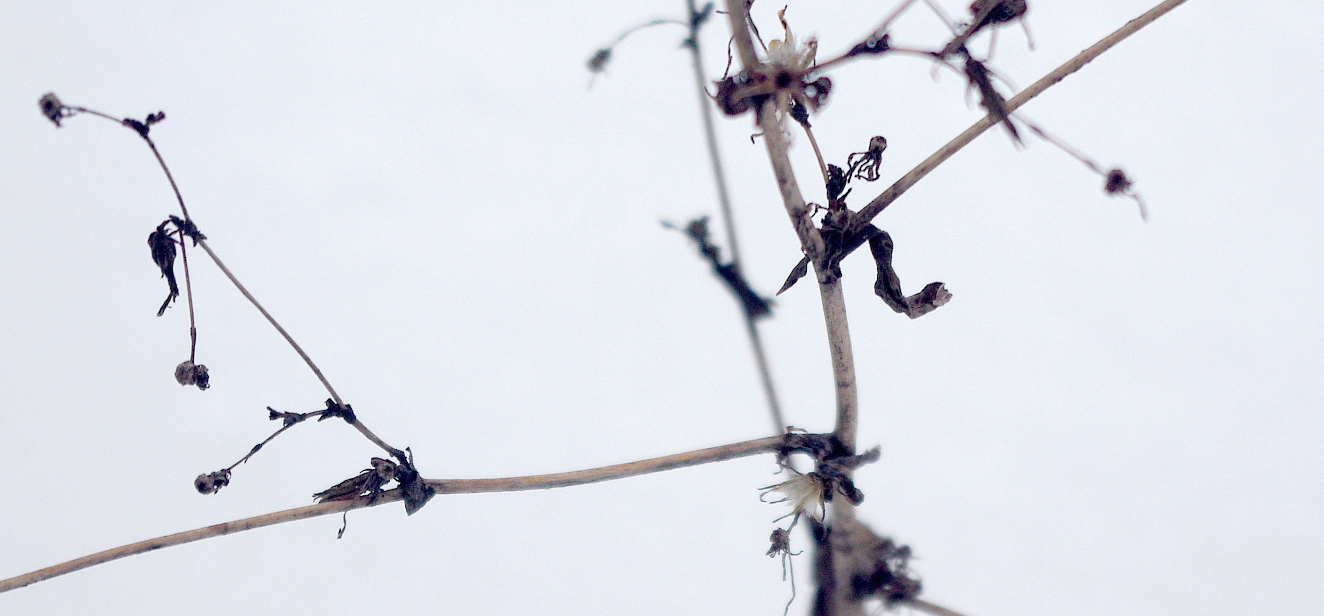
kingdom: Plantae
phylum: Tracheophyta
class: Magnoliopsida
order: Asterales
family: Asteraceae
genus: Lactuca
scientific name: Lactuca serriola
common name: Prickly lettuce
